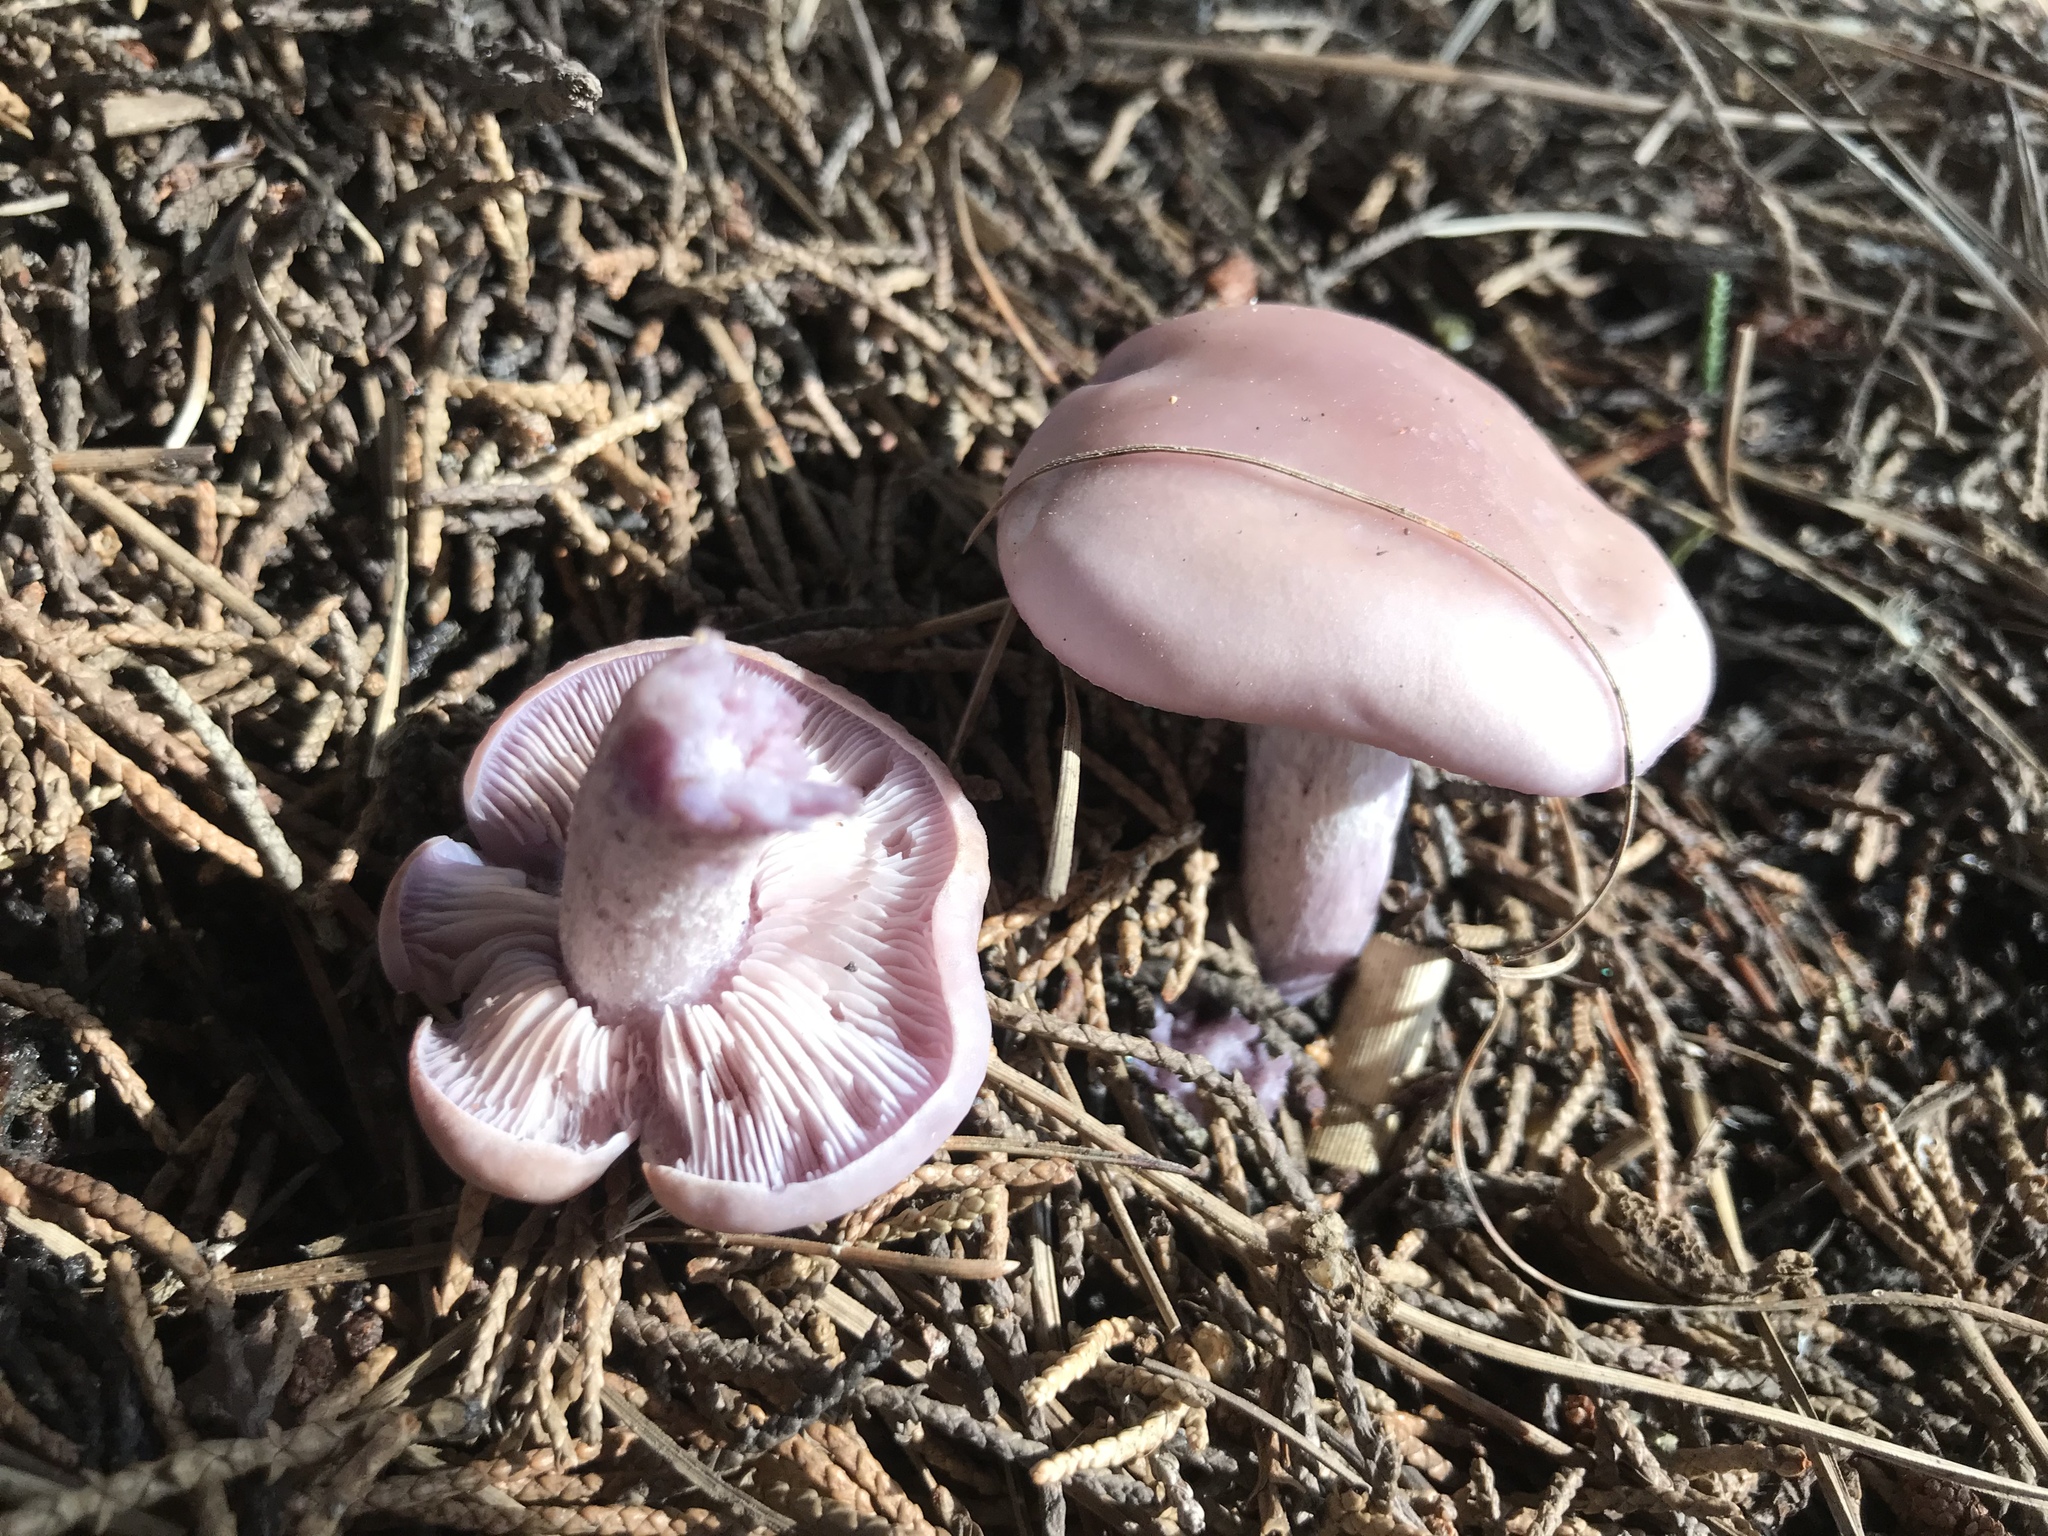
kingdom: Fungi
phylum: Basidiomycota
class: Agaricomycetes
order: Agaricales
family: Tricholomataceae
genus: Collybia
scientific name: Collybia
